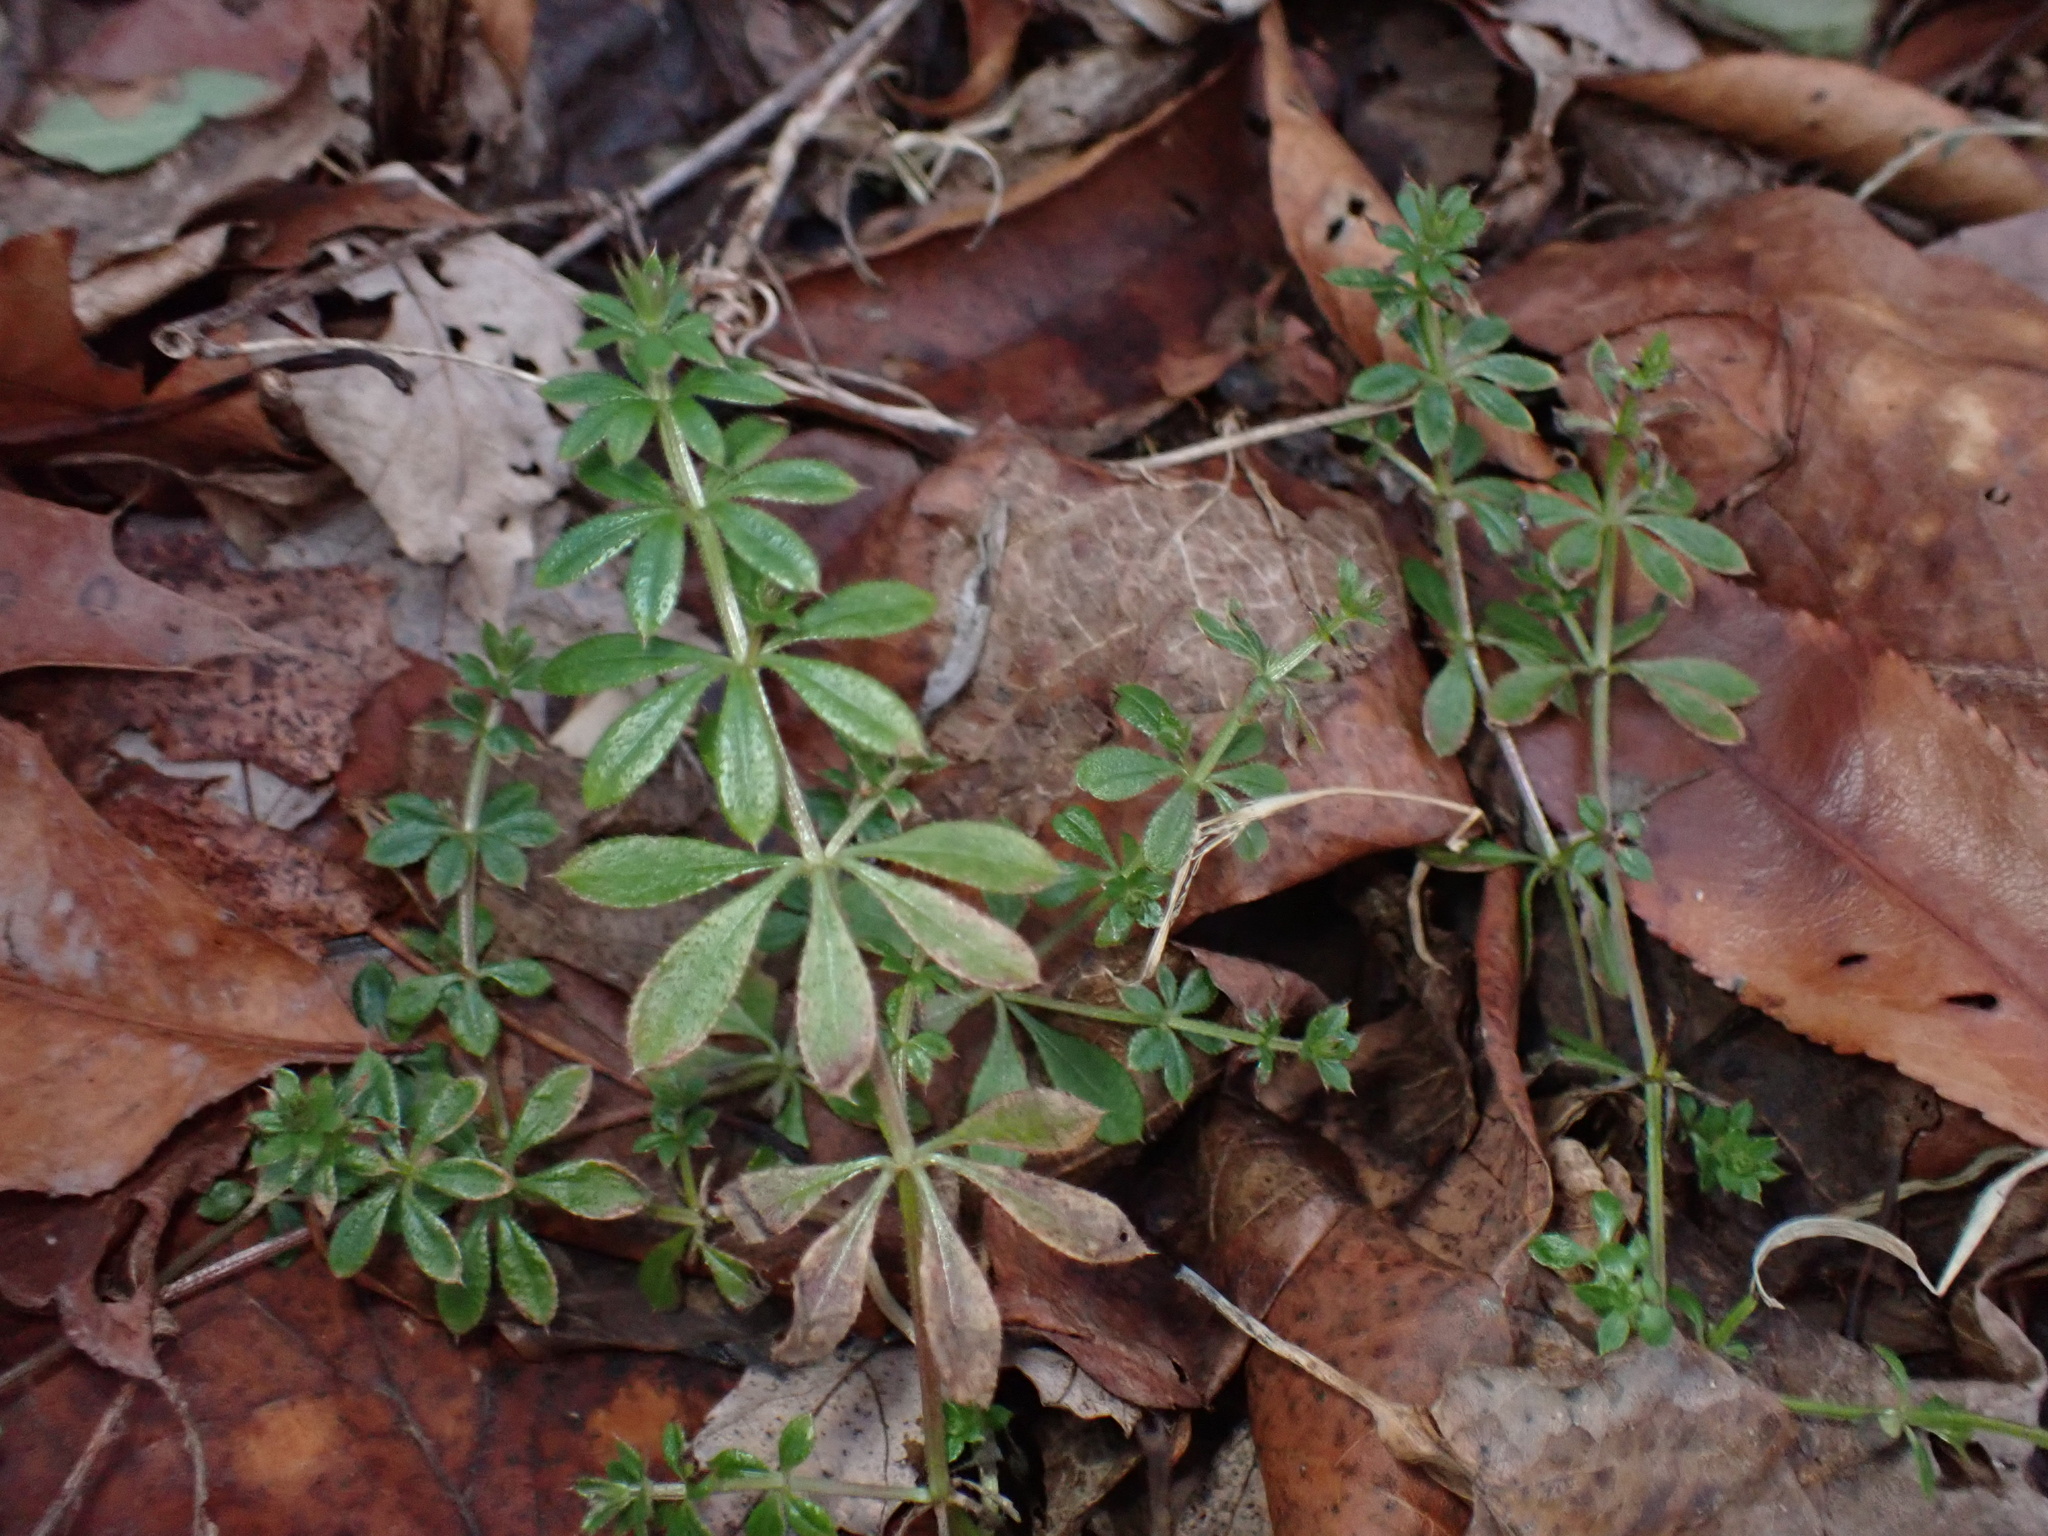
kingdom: Plantae
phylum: Tracheophyta
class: Magnoliopsida
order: Gentianales
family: Rubiaceae
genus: Galium
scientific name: Galium aparine
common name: Cleavers
